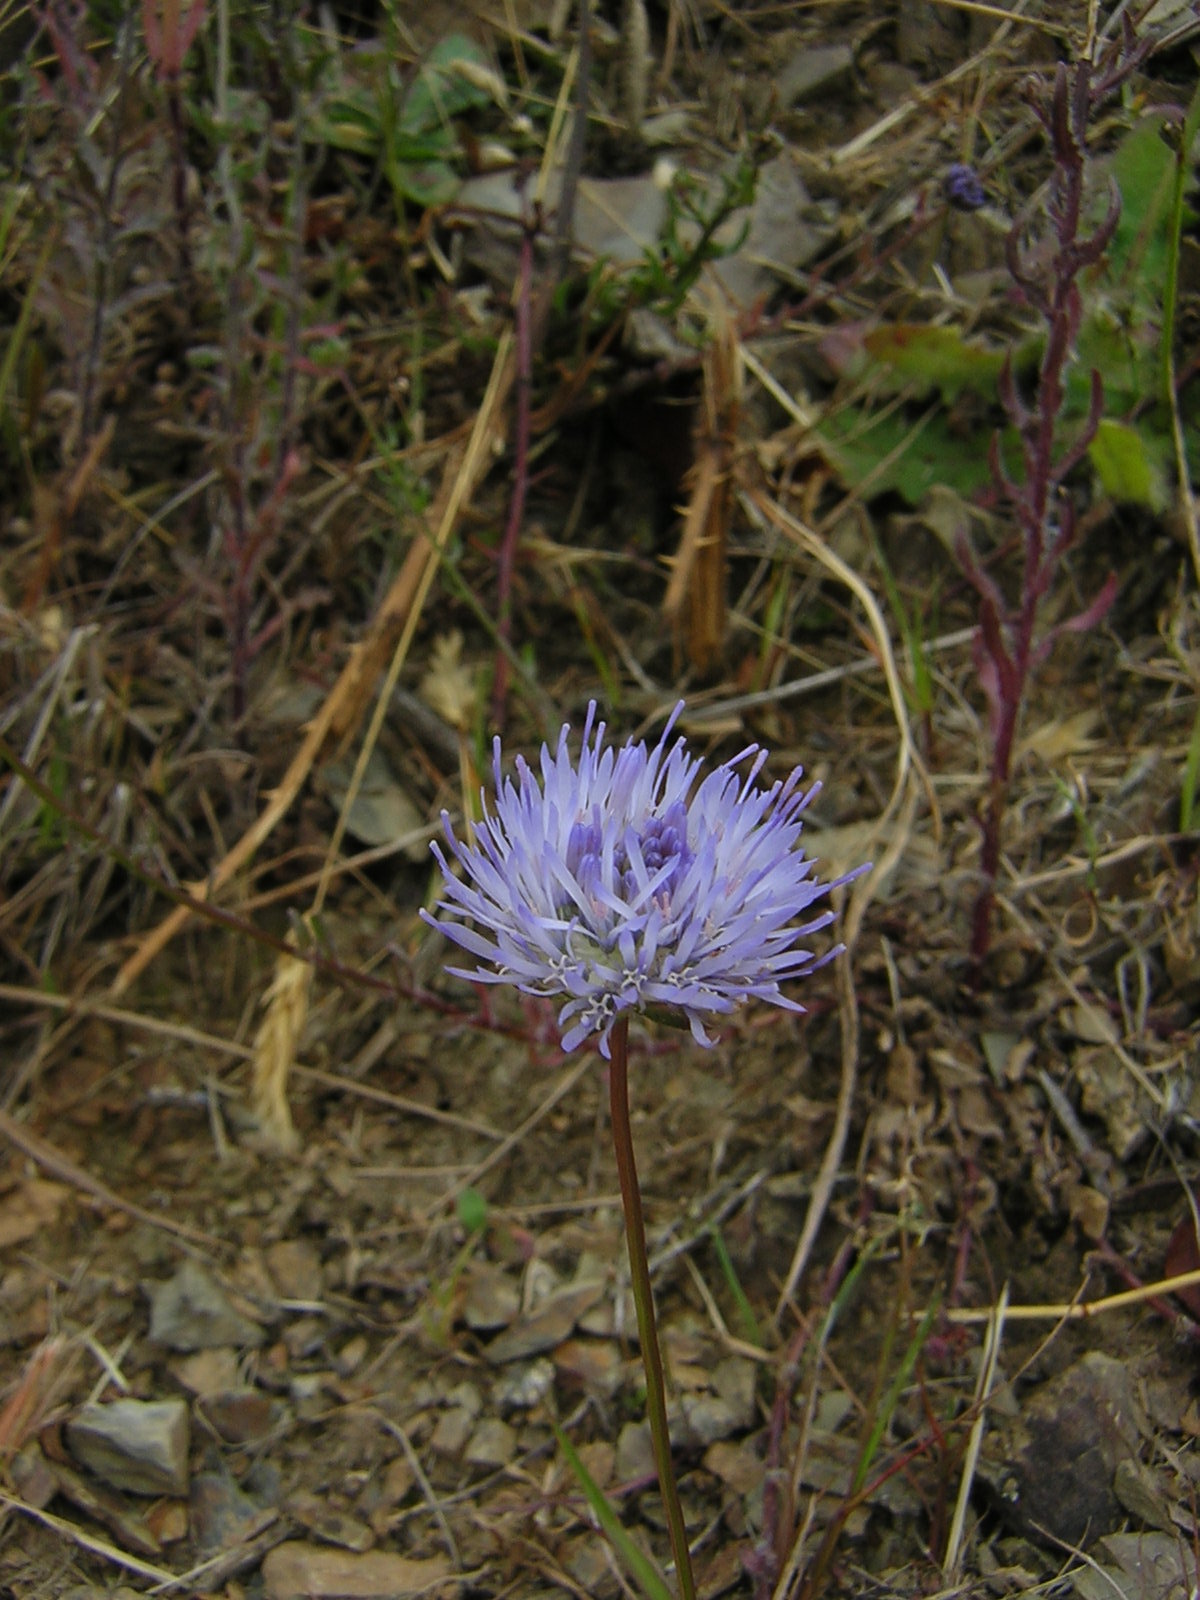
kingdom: Plantae
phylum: Tracheophyta
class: Magnoliopsida
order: Asterales
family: Campanulaceae
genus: Jasione
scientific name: Jasione montana
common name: Sheep's-bit
